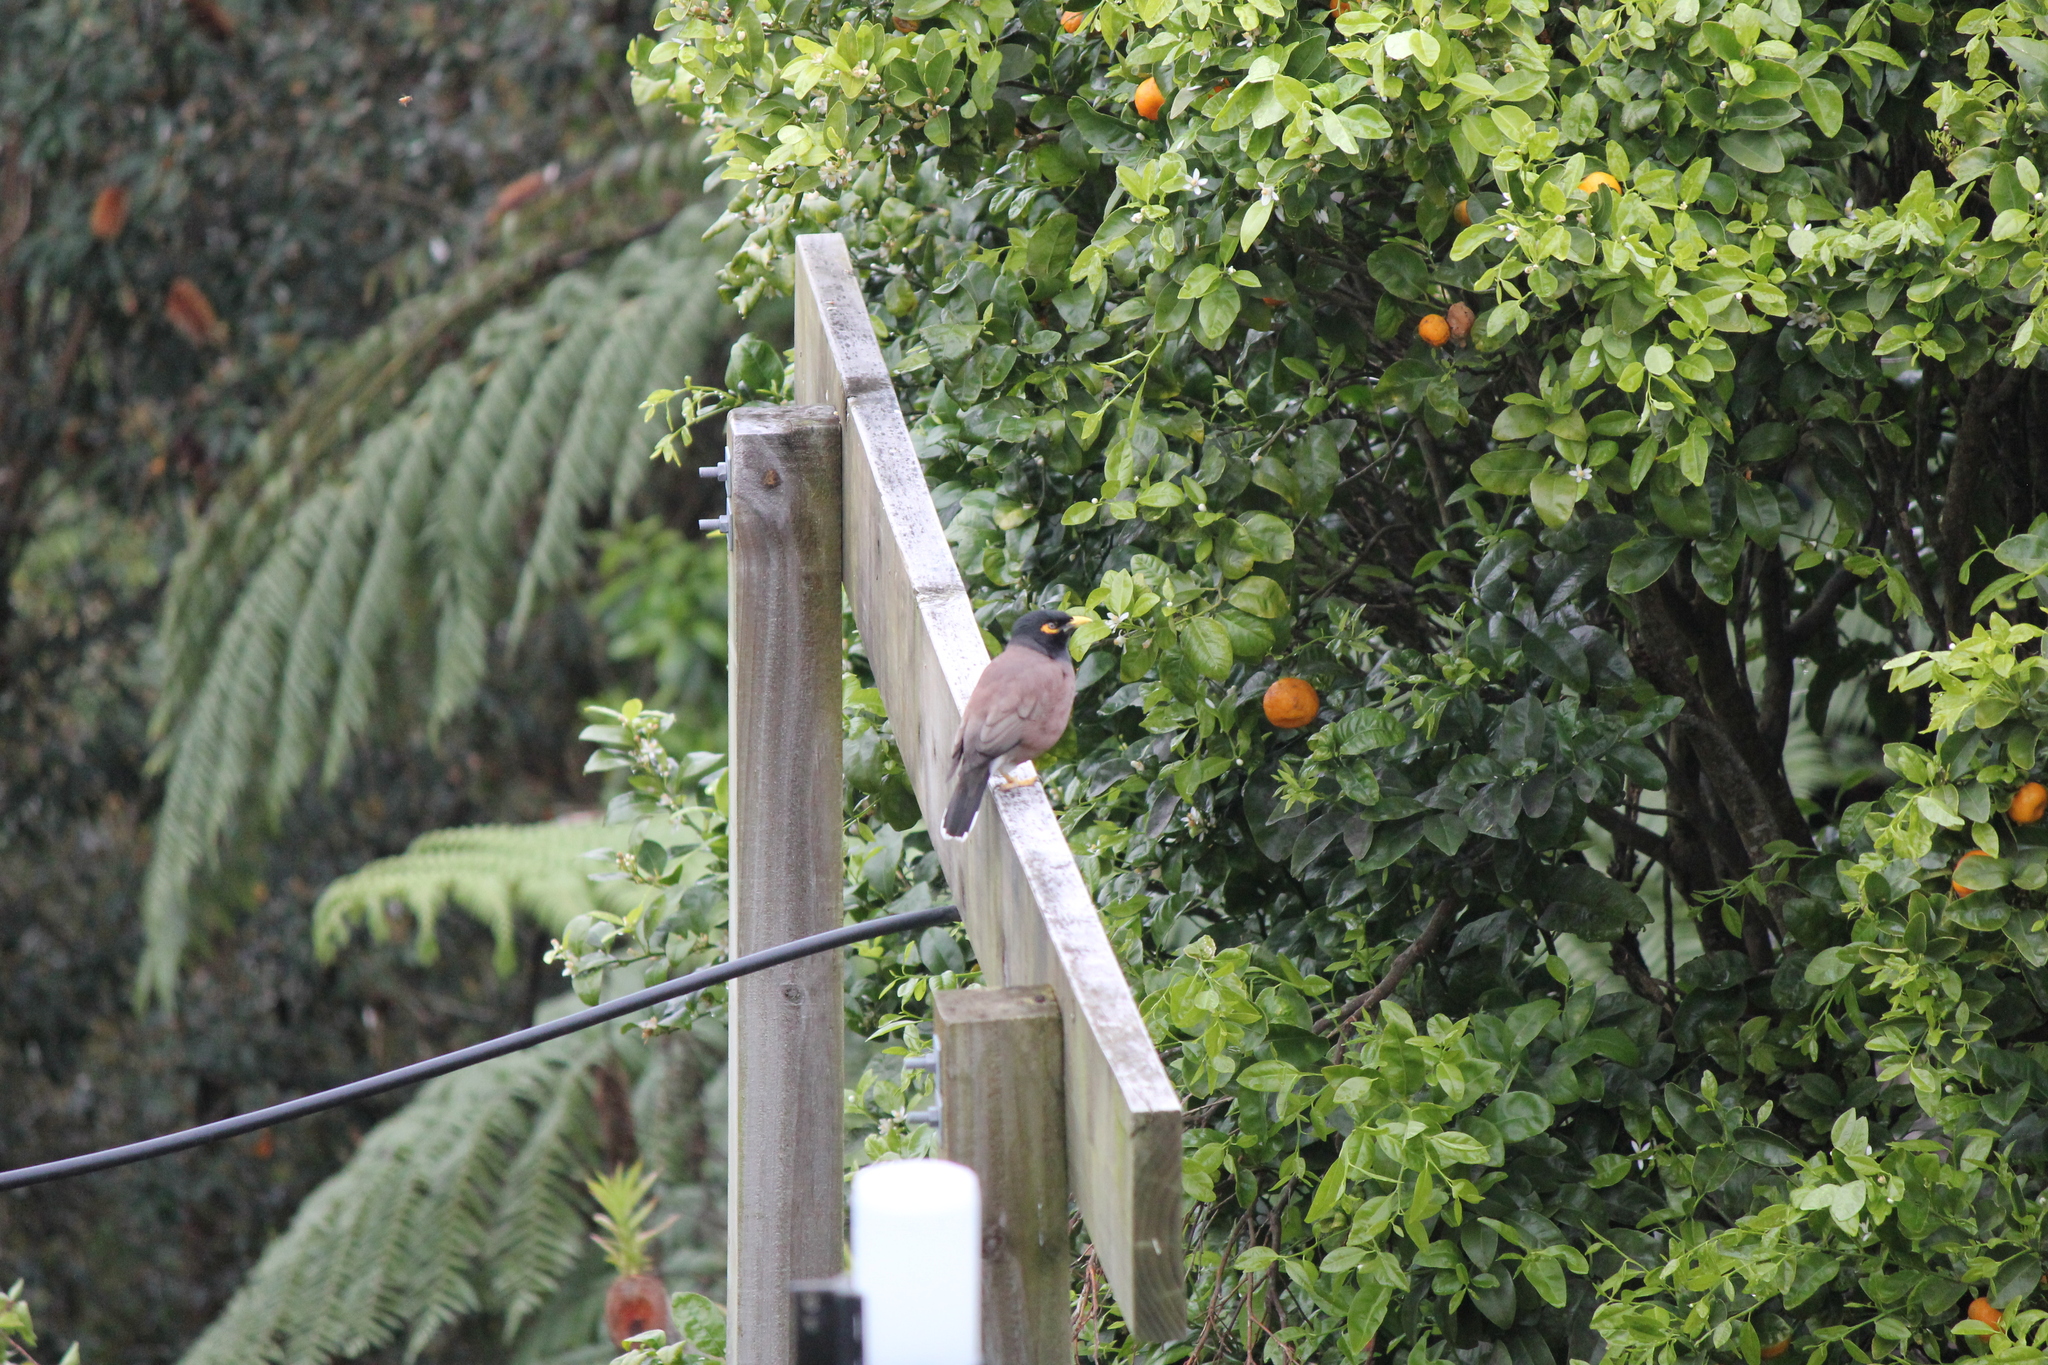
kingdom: Animalia
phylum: Chordata
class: Aves
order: Passeriformes
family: Sturnidae
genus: Acridotheres
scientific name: Acridotheres tristis
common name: Common myna
